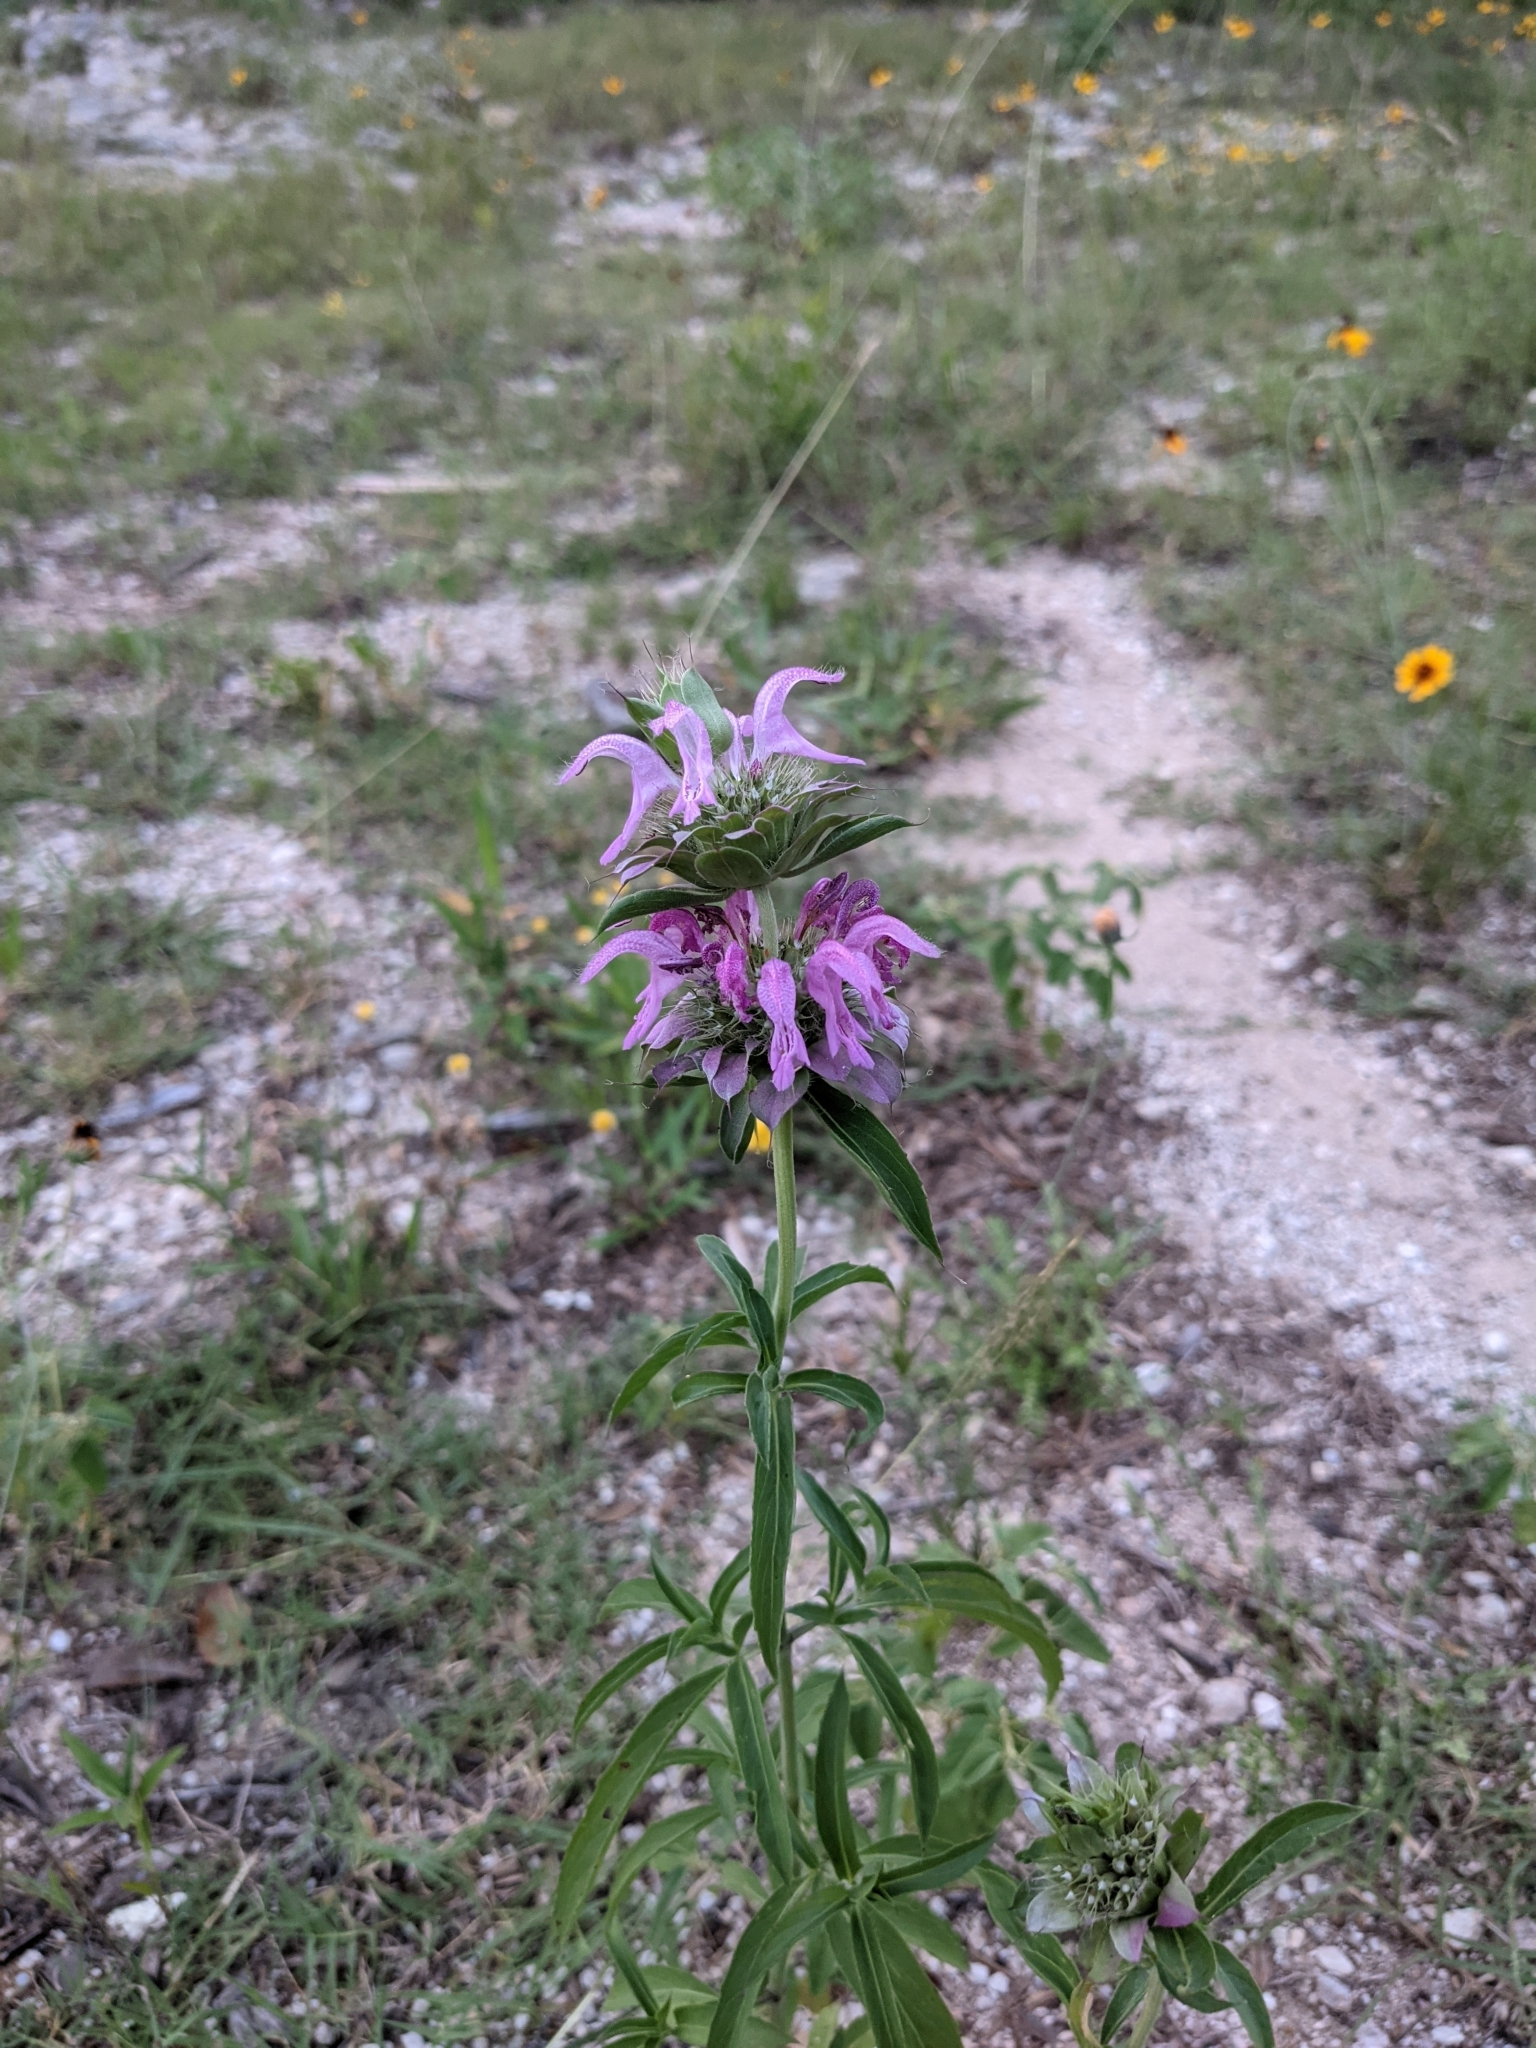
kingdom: Plantae
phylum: Tracheophyta
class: Magnoliopsida
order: Lamiales
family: Lamiaceae
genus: Monarda
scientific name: Monarda citriodora
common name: Lemon beebalm
